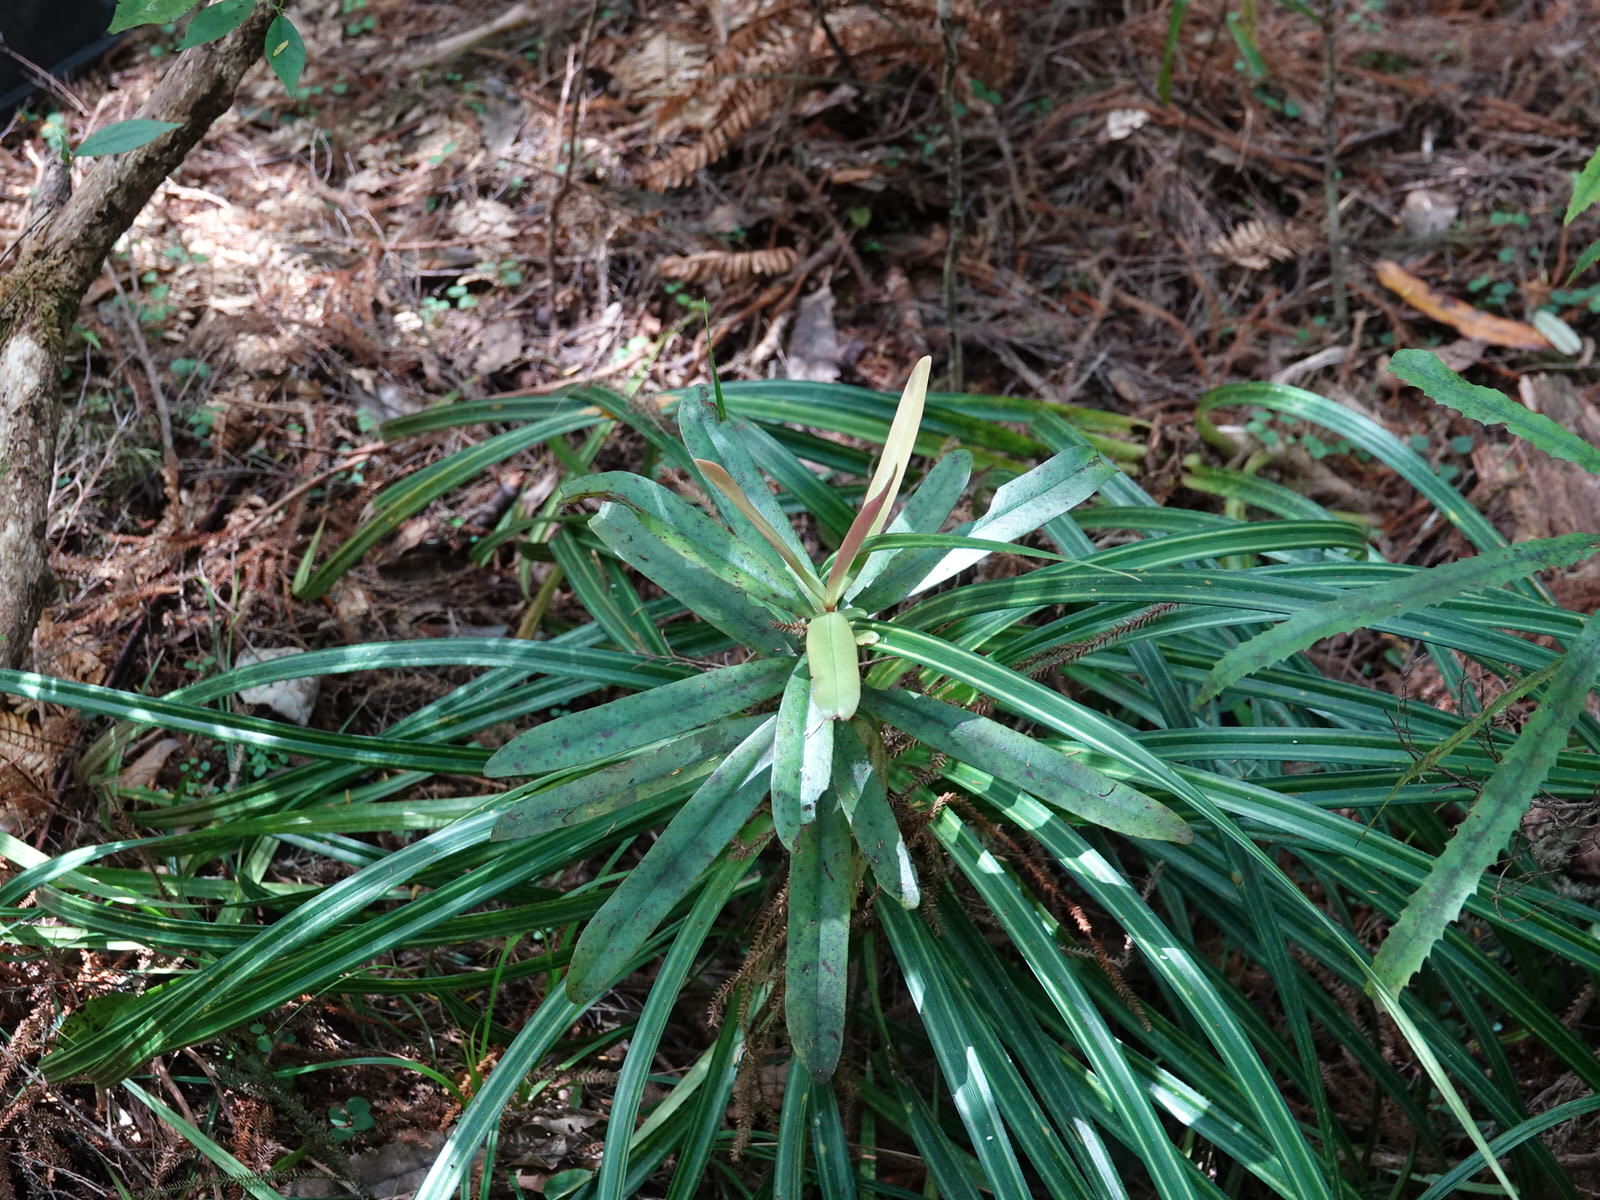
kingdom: Plantae
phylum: Tracheophyta
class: Magnoliopsida
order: Ericales
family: Primulaceae
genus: Myrsine
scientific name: Myrsine salicina
